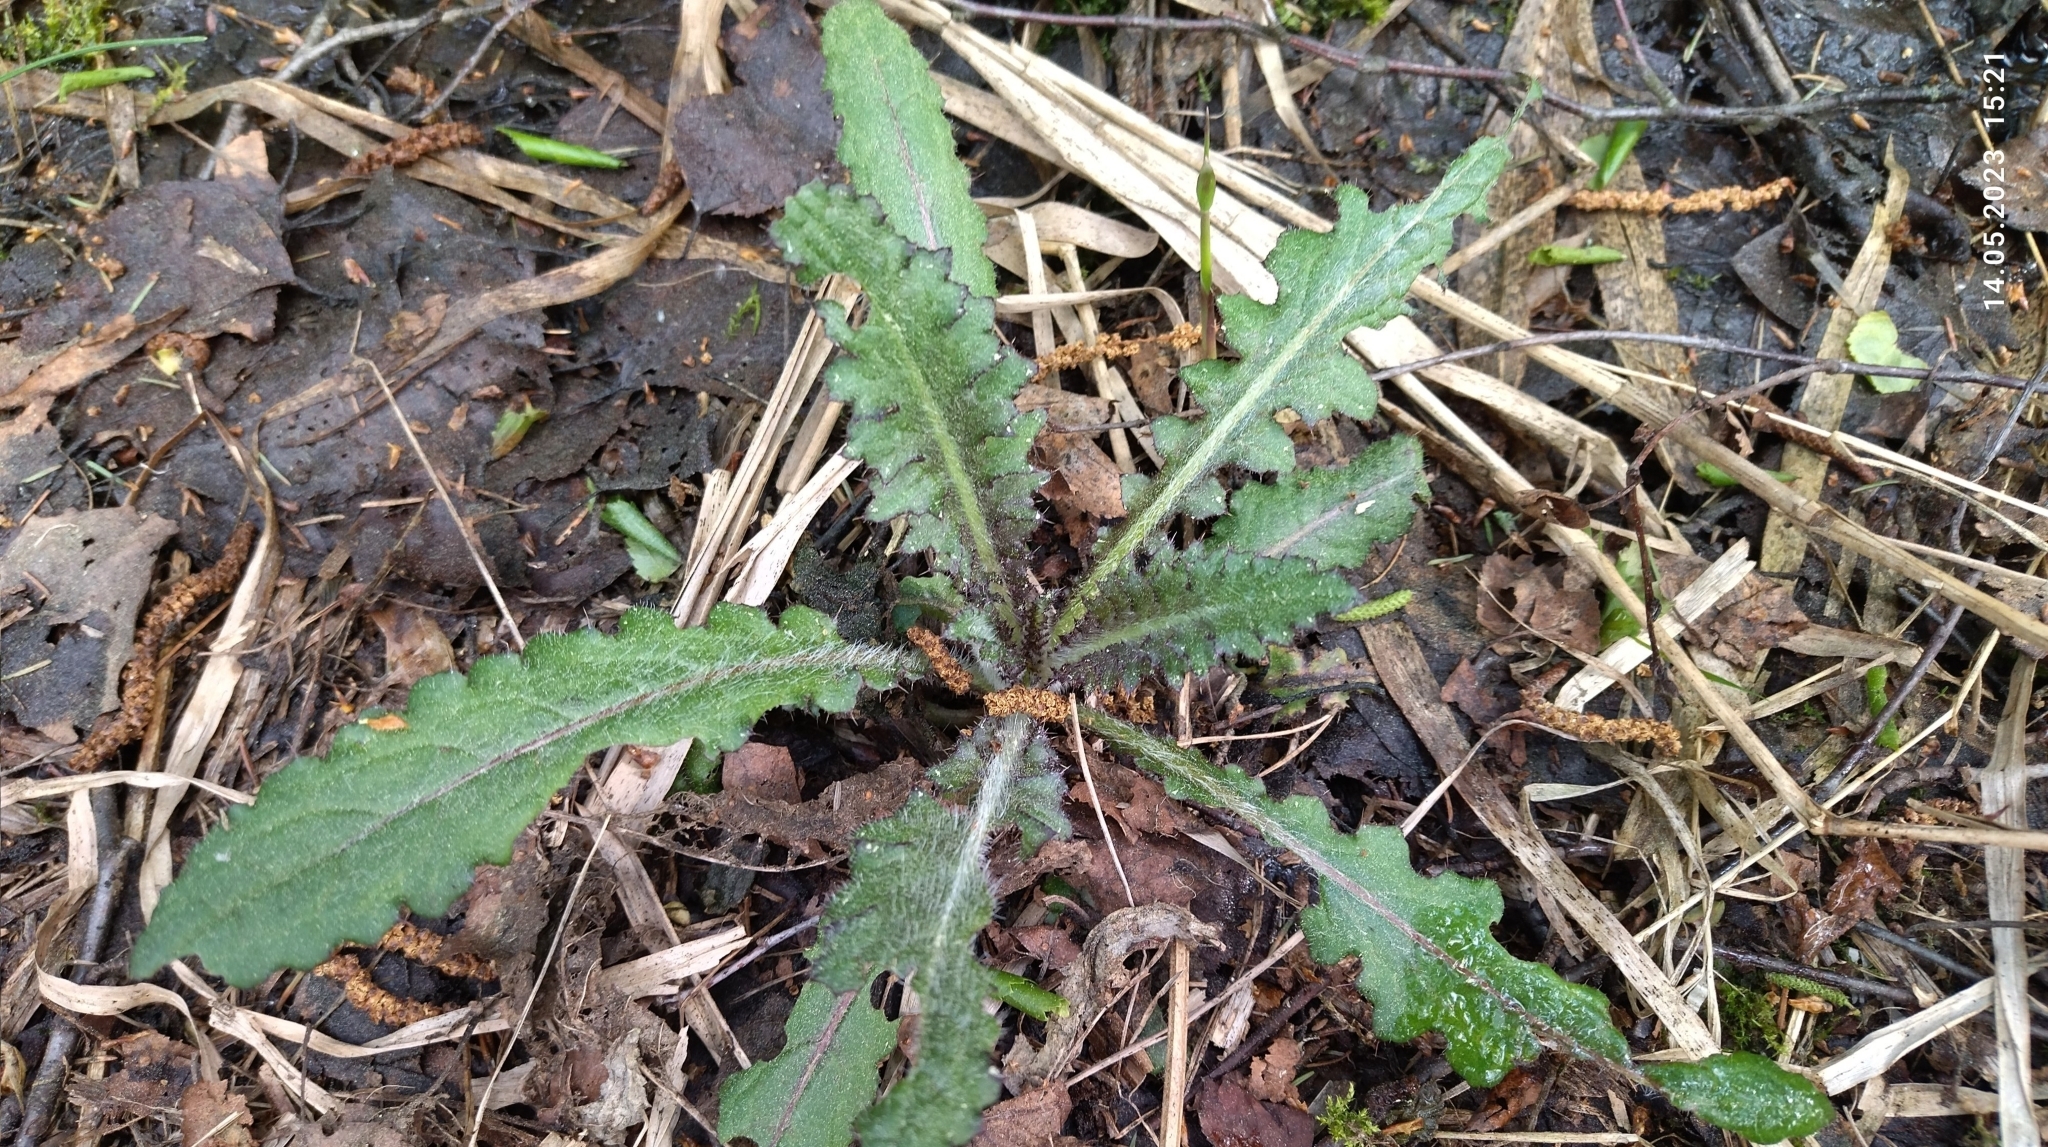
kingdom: Plantae
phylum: Tracheophyta
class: Magnoliopsida
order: Asterales
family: Asteraceae
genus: Cirsium
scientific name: Cirsium palustre
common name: Marsh thistle
